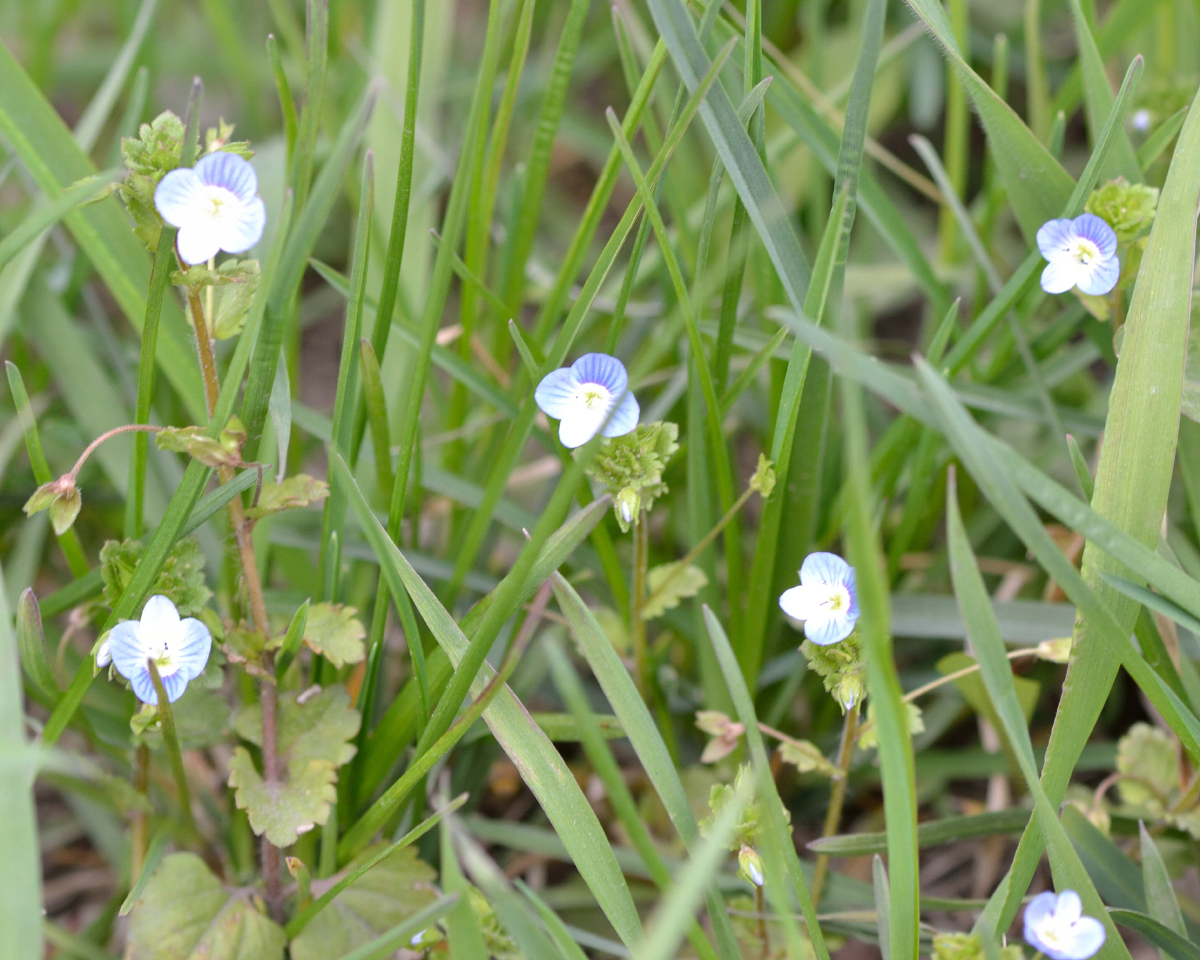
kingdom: Plantae
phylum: Tracheophyta
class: Magnoliopsida
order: Lamiales
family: Plantaginaceae
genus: Veronica
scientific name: Veronica persica
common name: Common field-speedwell
